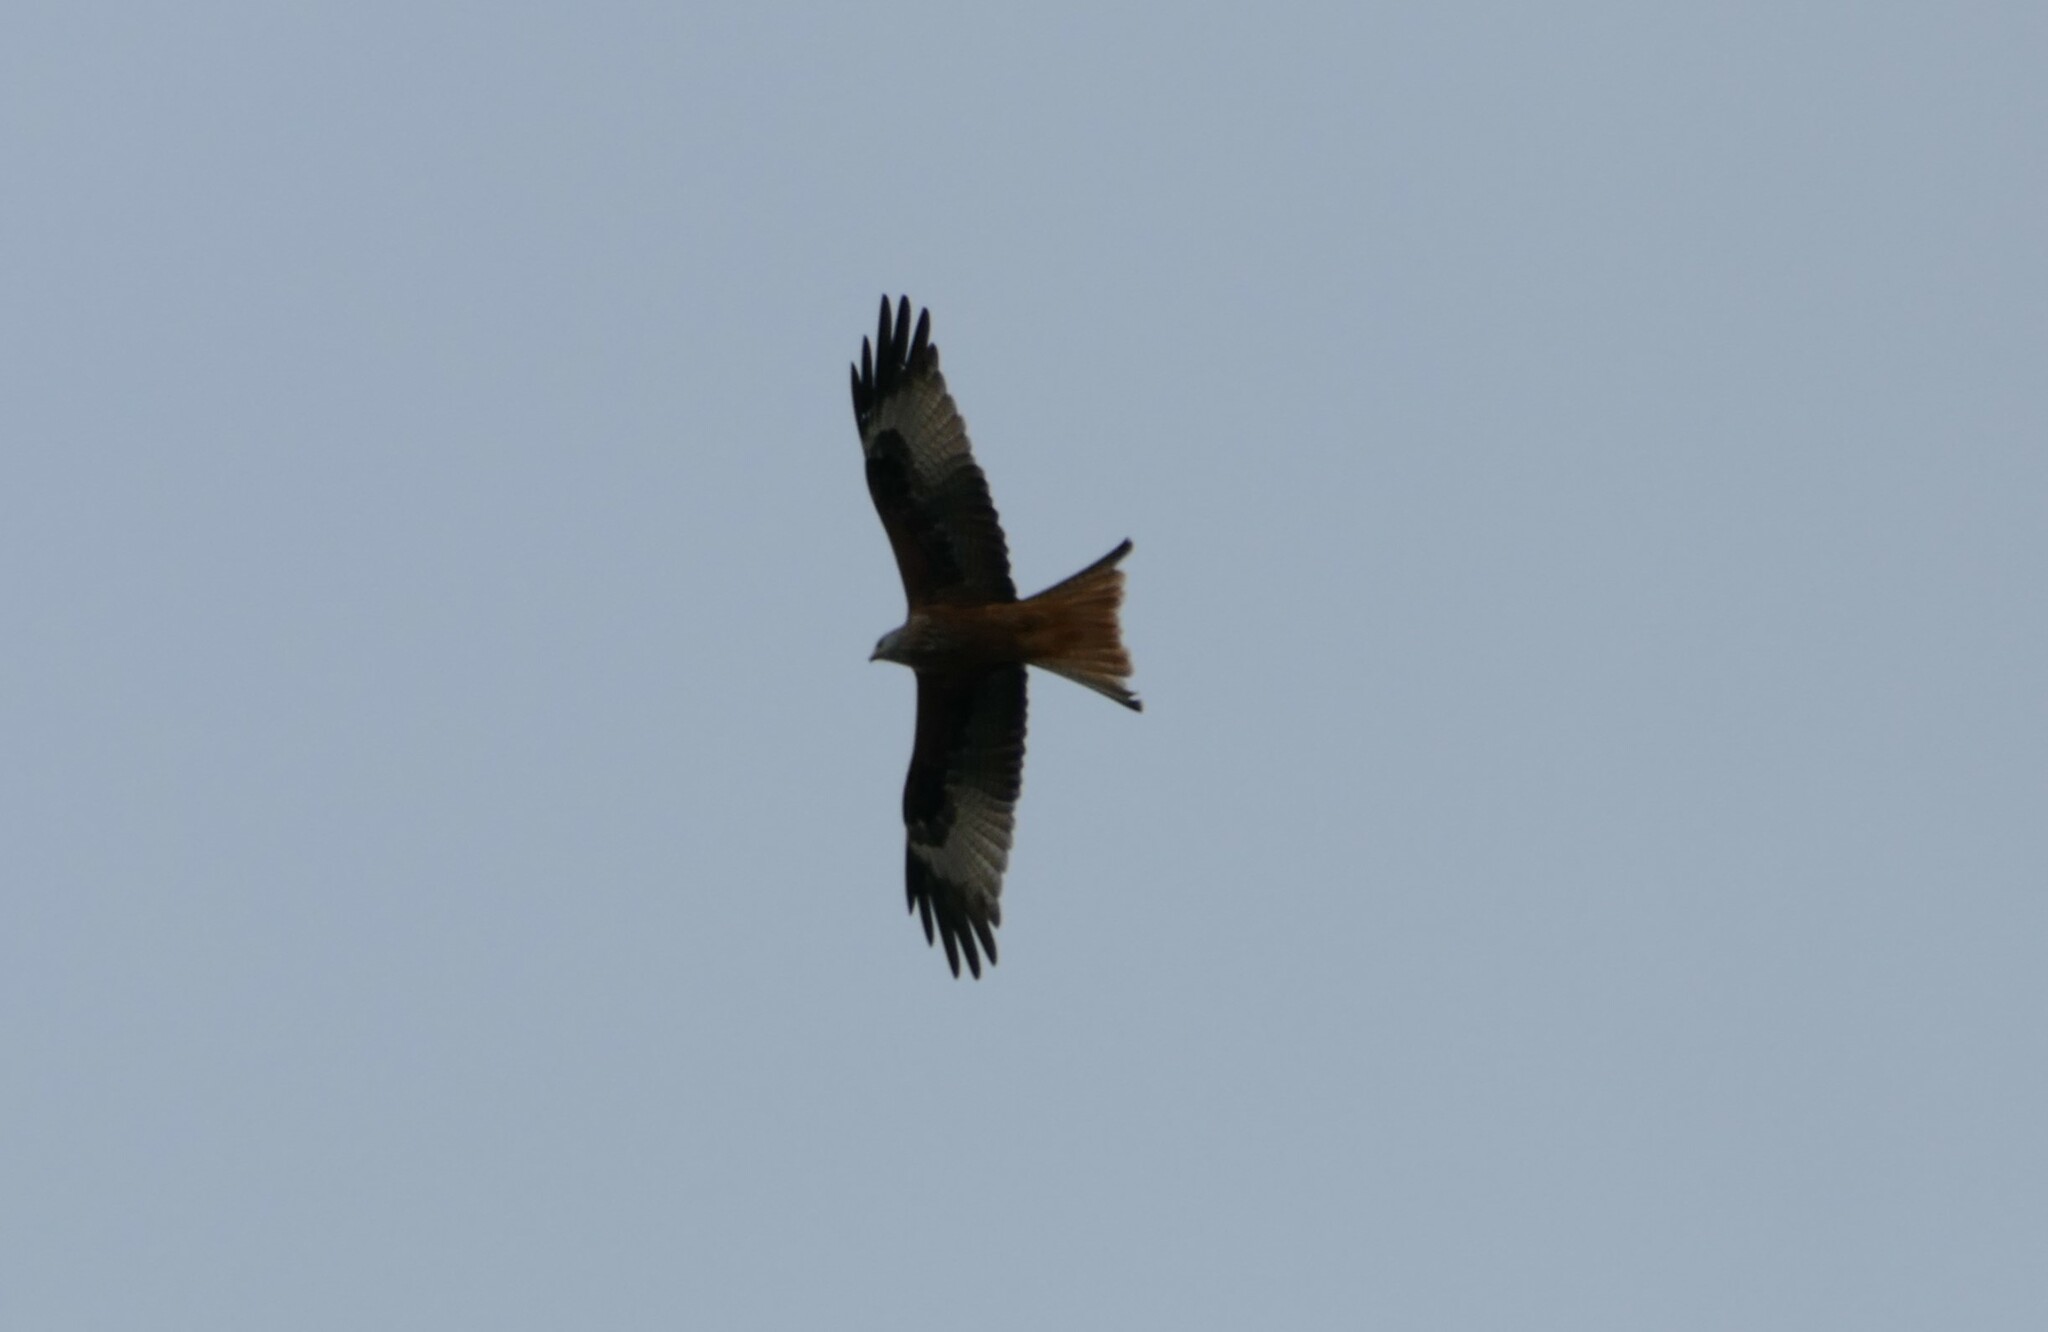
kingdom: Animalia
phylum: Chordata
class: Aves
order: Accipitriformes
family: Accipitridae
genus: Milvus
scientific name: Milvus milvus
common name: Red kite
